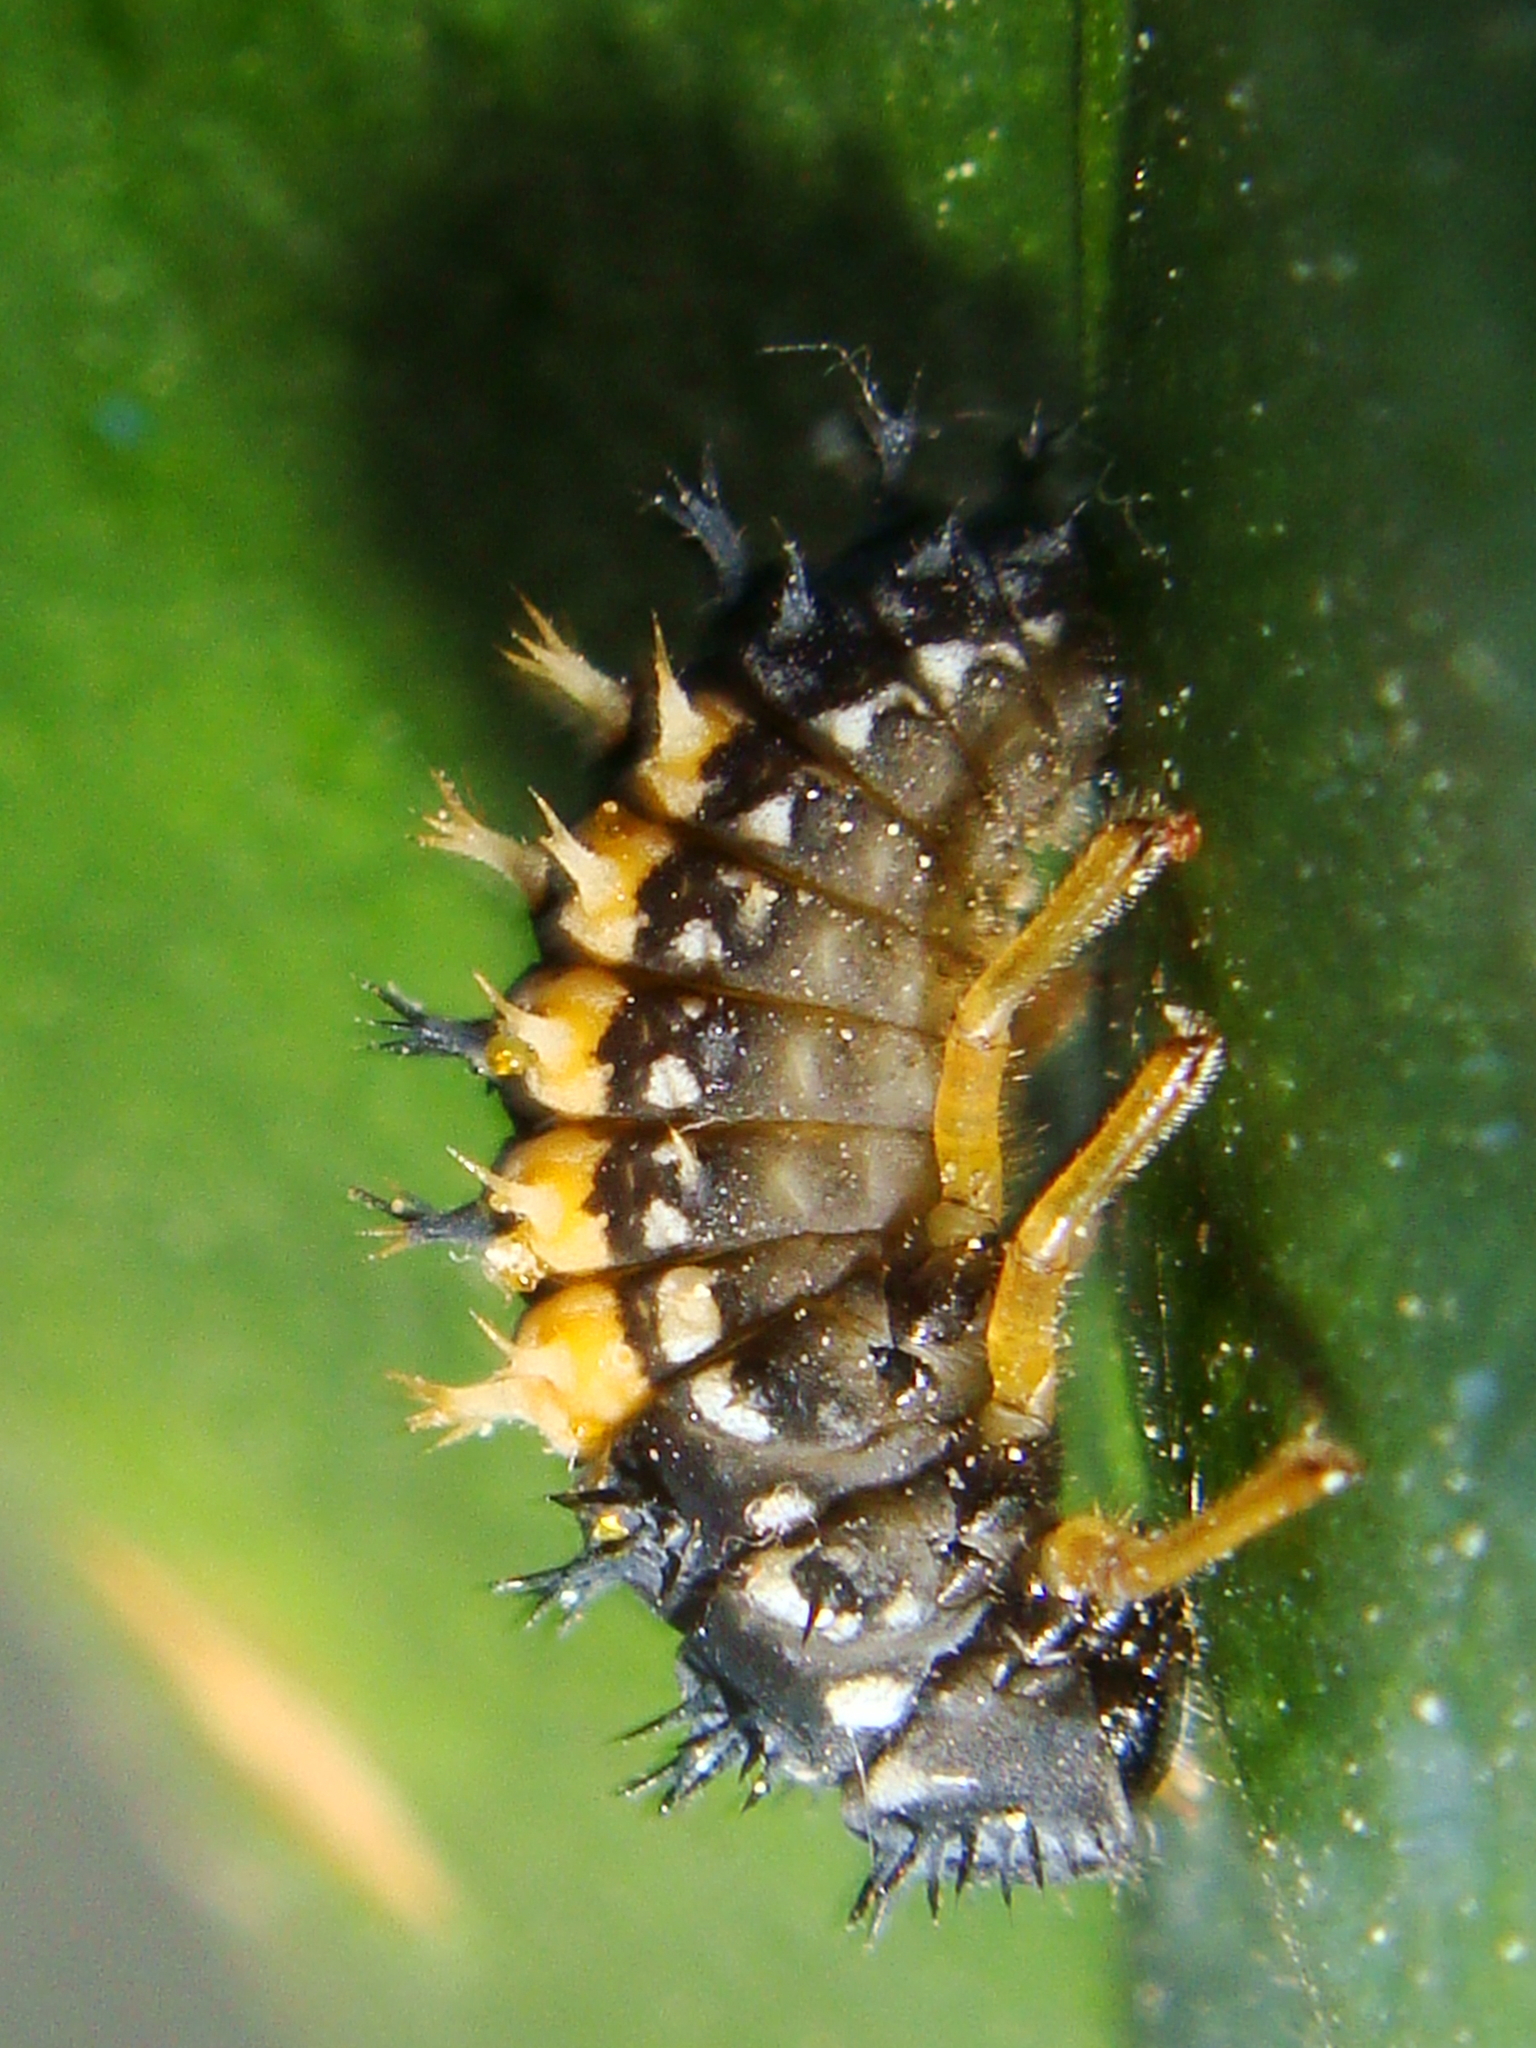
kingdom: Animalia
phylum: Arthropoda
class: Insecta
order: Coleoptera
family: Coccinellidae
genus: Harmonia
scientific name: Harmonia axyridis
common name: Harlequin ladybird
